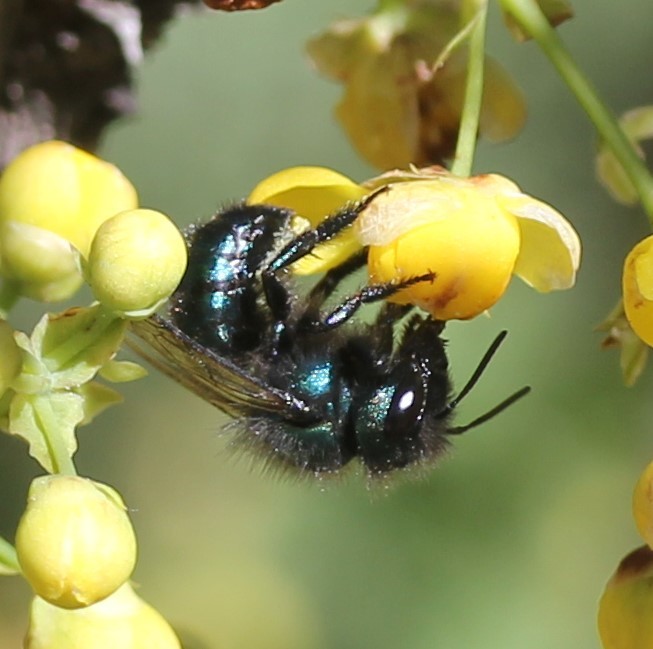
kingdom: Animalia
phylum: Arthropoda
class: Insecta
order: Hymenoptera
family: Megachilidae
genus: Osmia
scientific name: Osmia ribifloris
